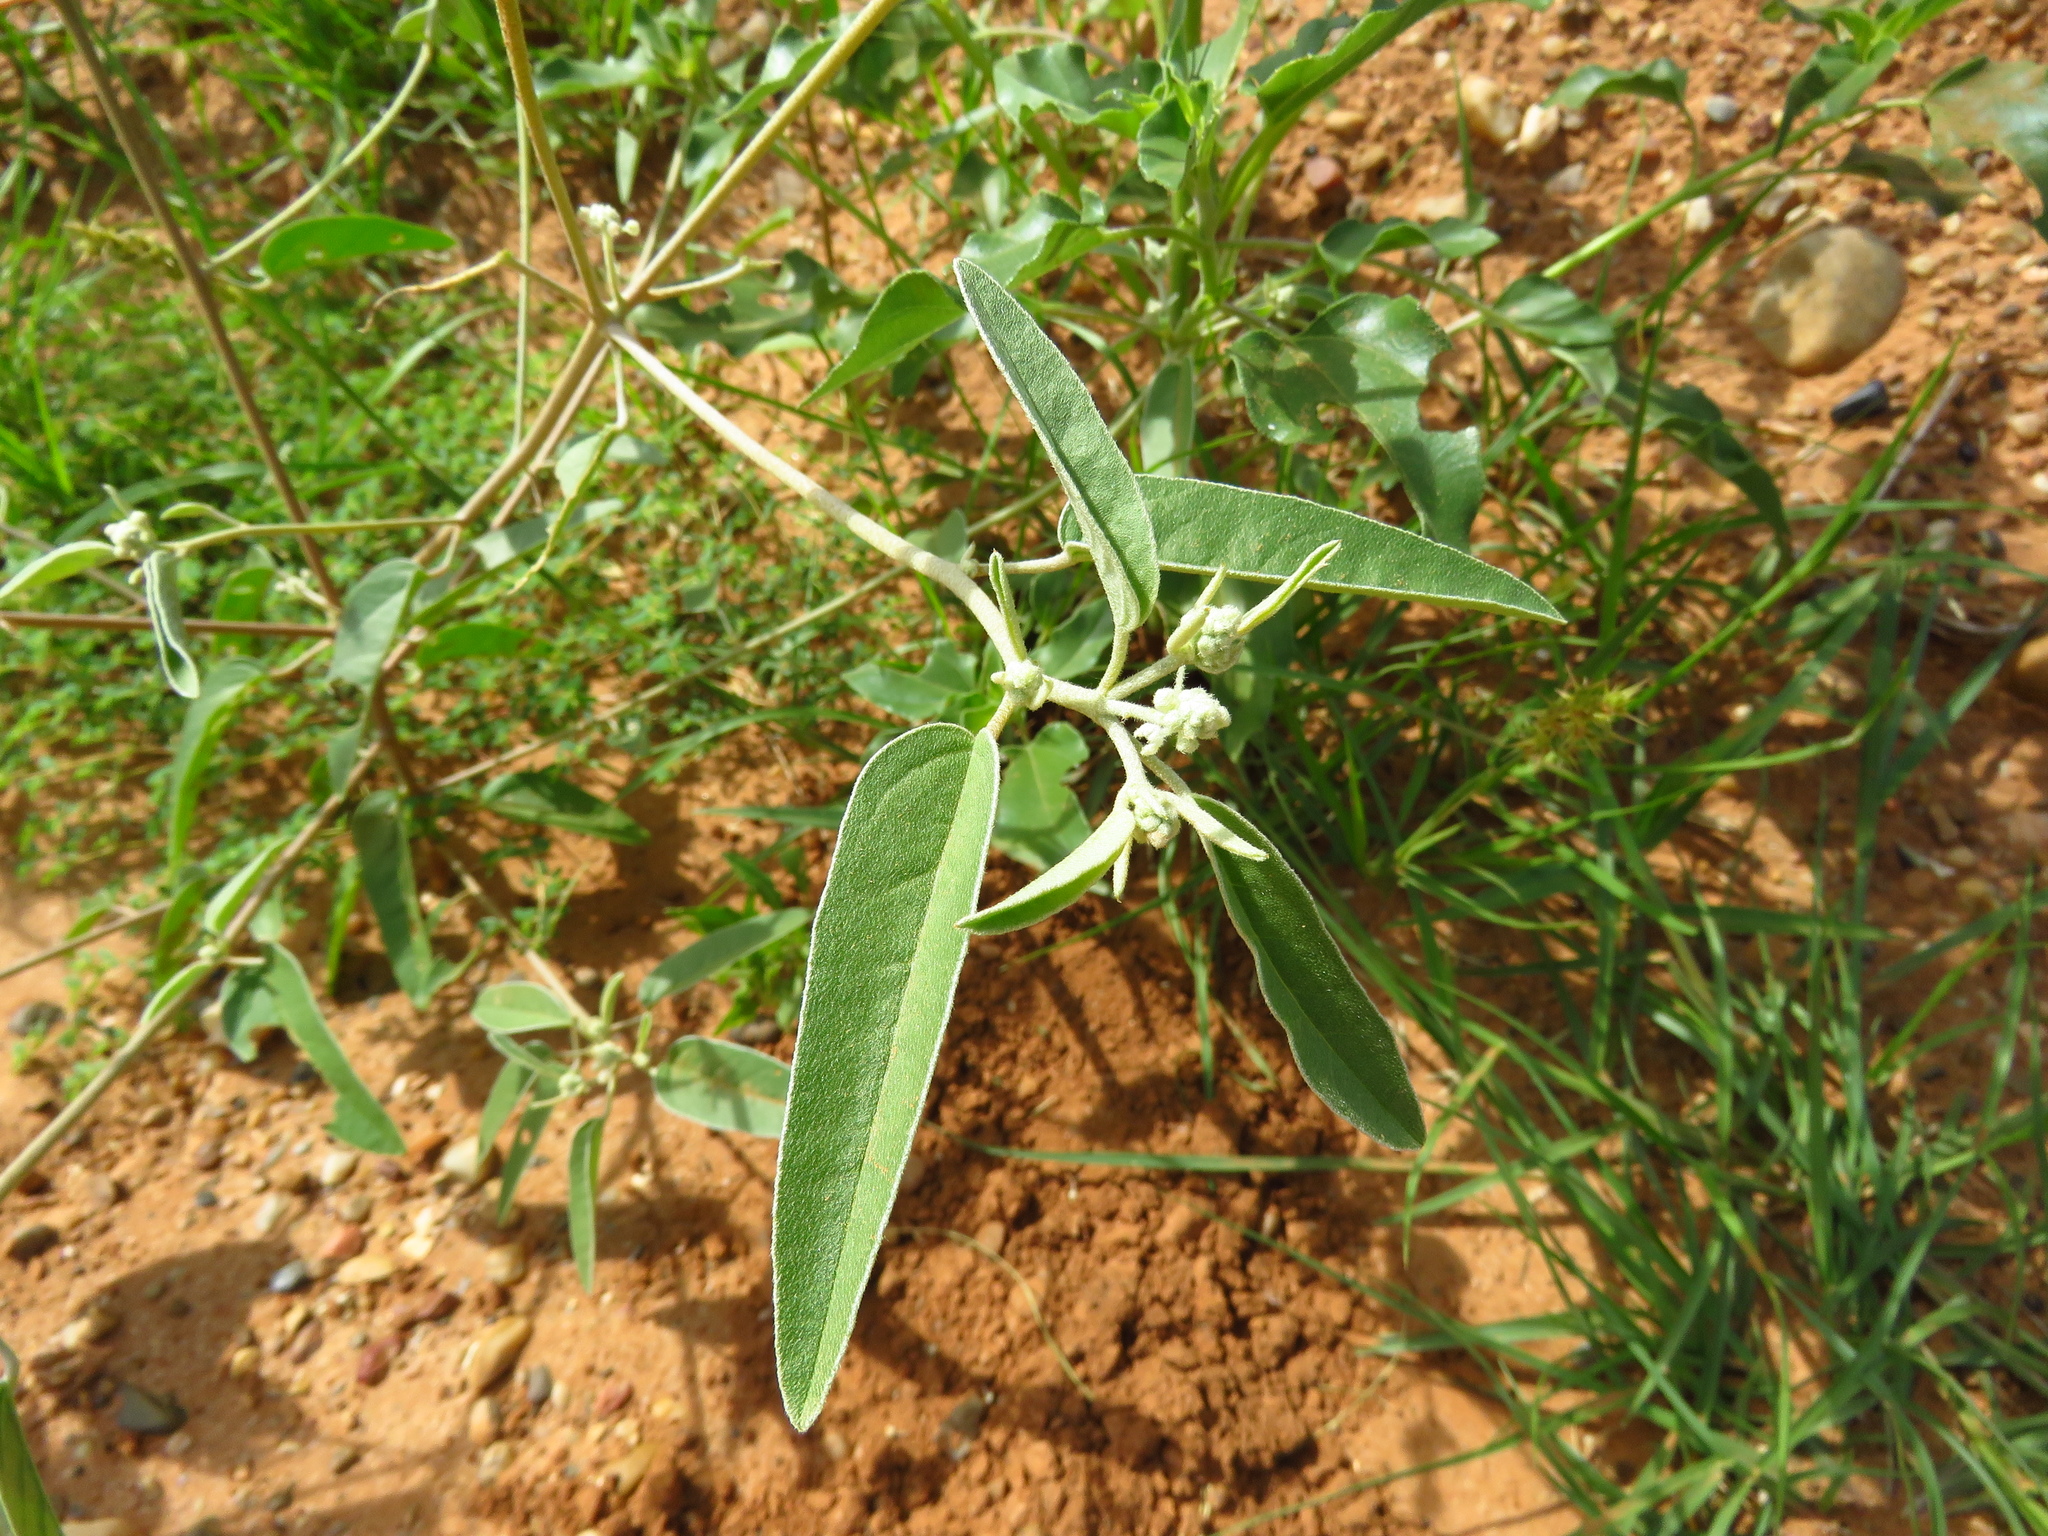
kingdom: Plantae
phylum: Tracheophyta
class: Magnoliopsida
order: Malpighiales
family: Euphorbiaceae
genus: Croton
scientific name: Croton texensis
